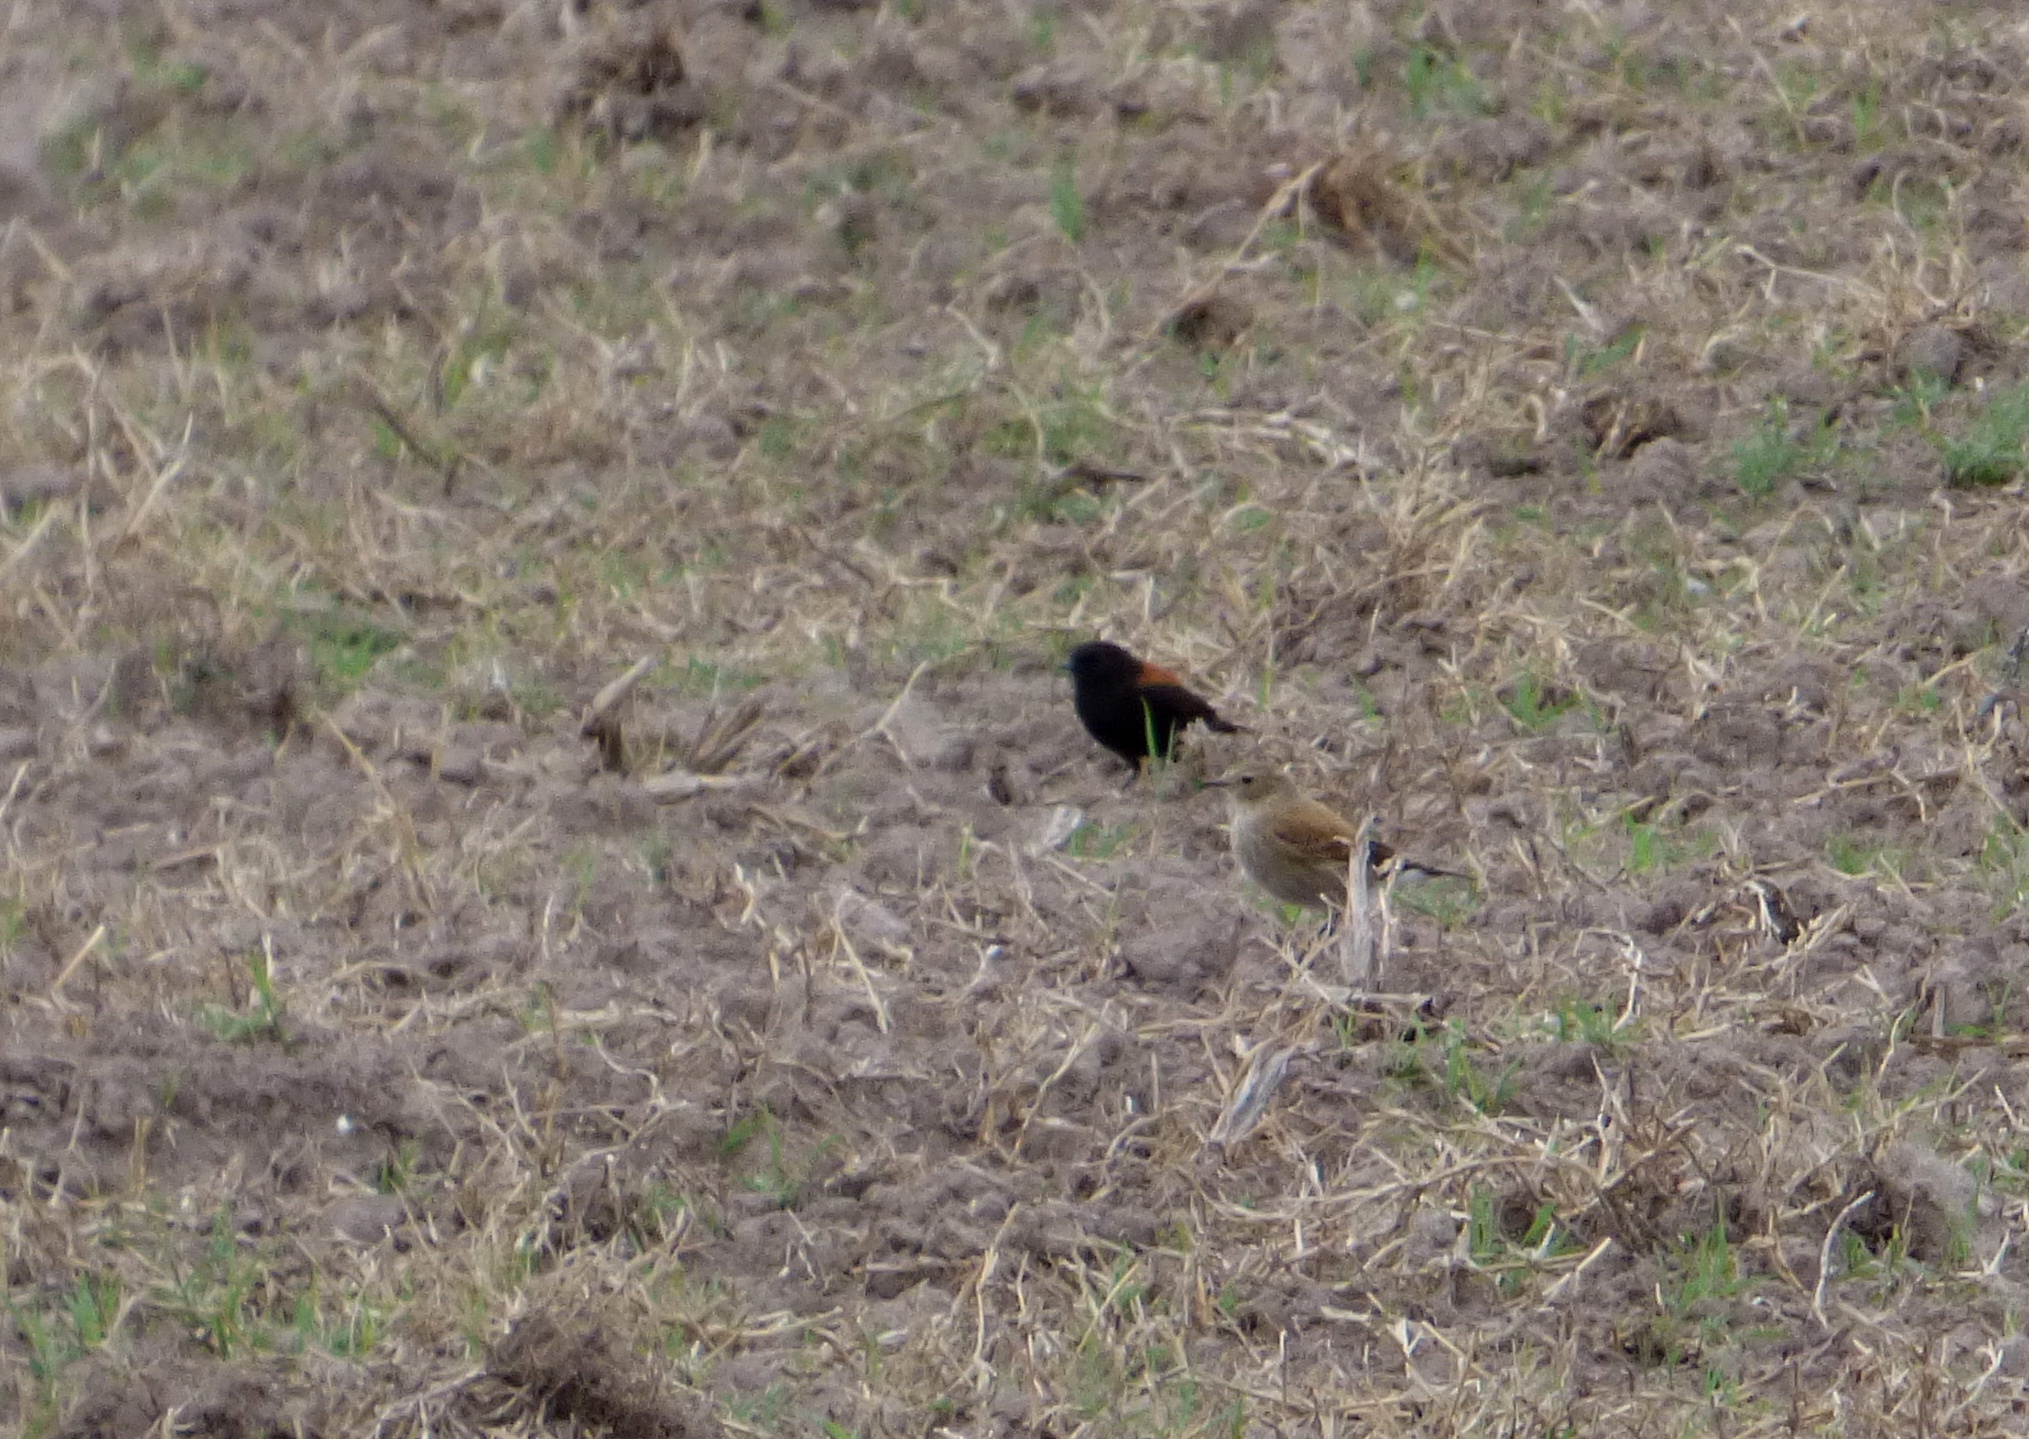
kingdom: Animalia
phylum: Chordata
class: Aves
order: Passeriformes
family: Tyrannidae
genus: Lessonia
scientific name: Lessonia rufa
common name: Austral negrito
